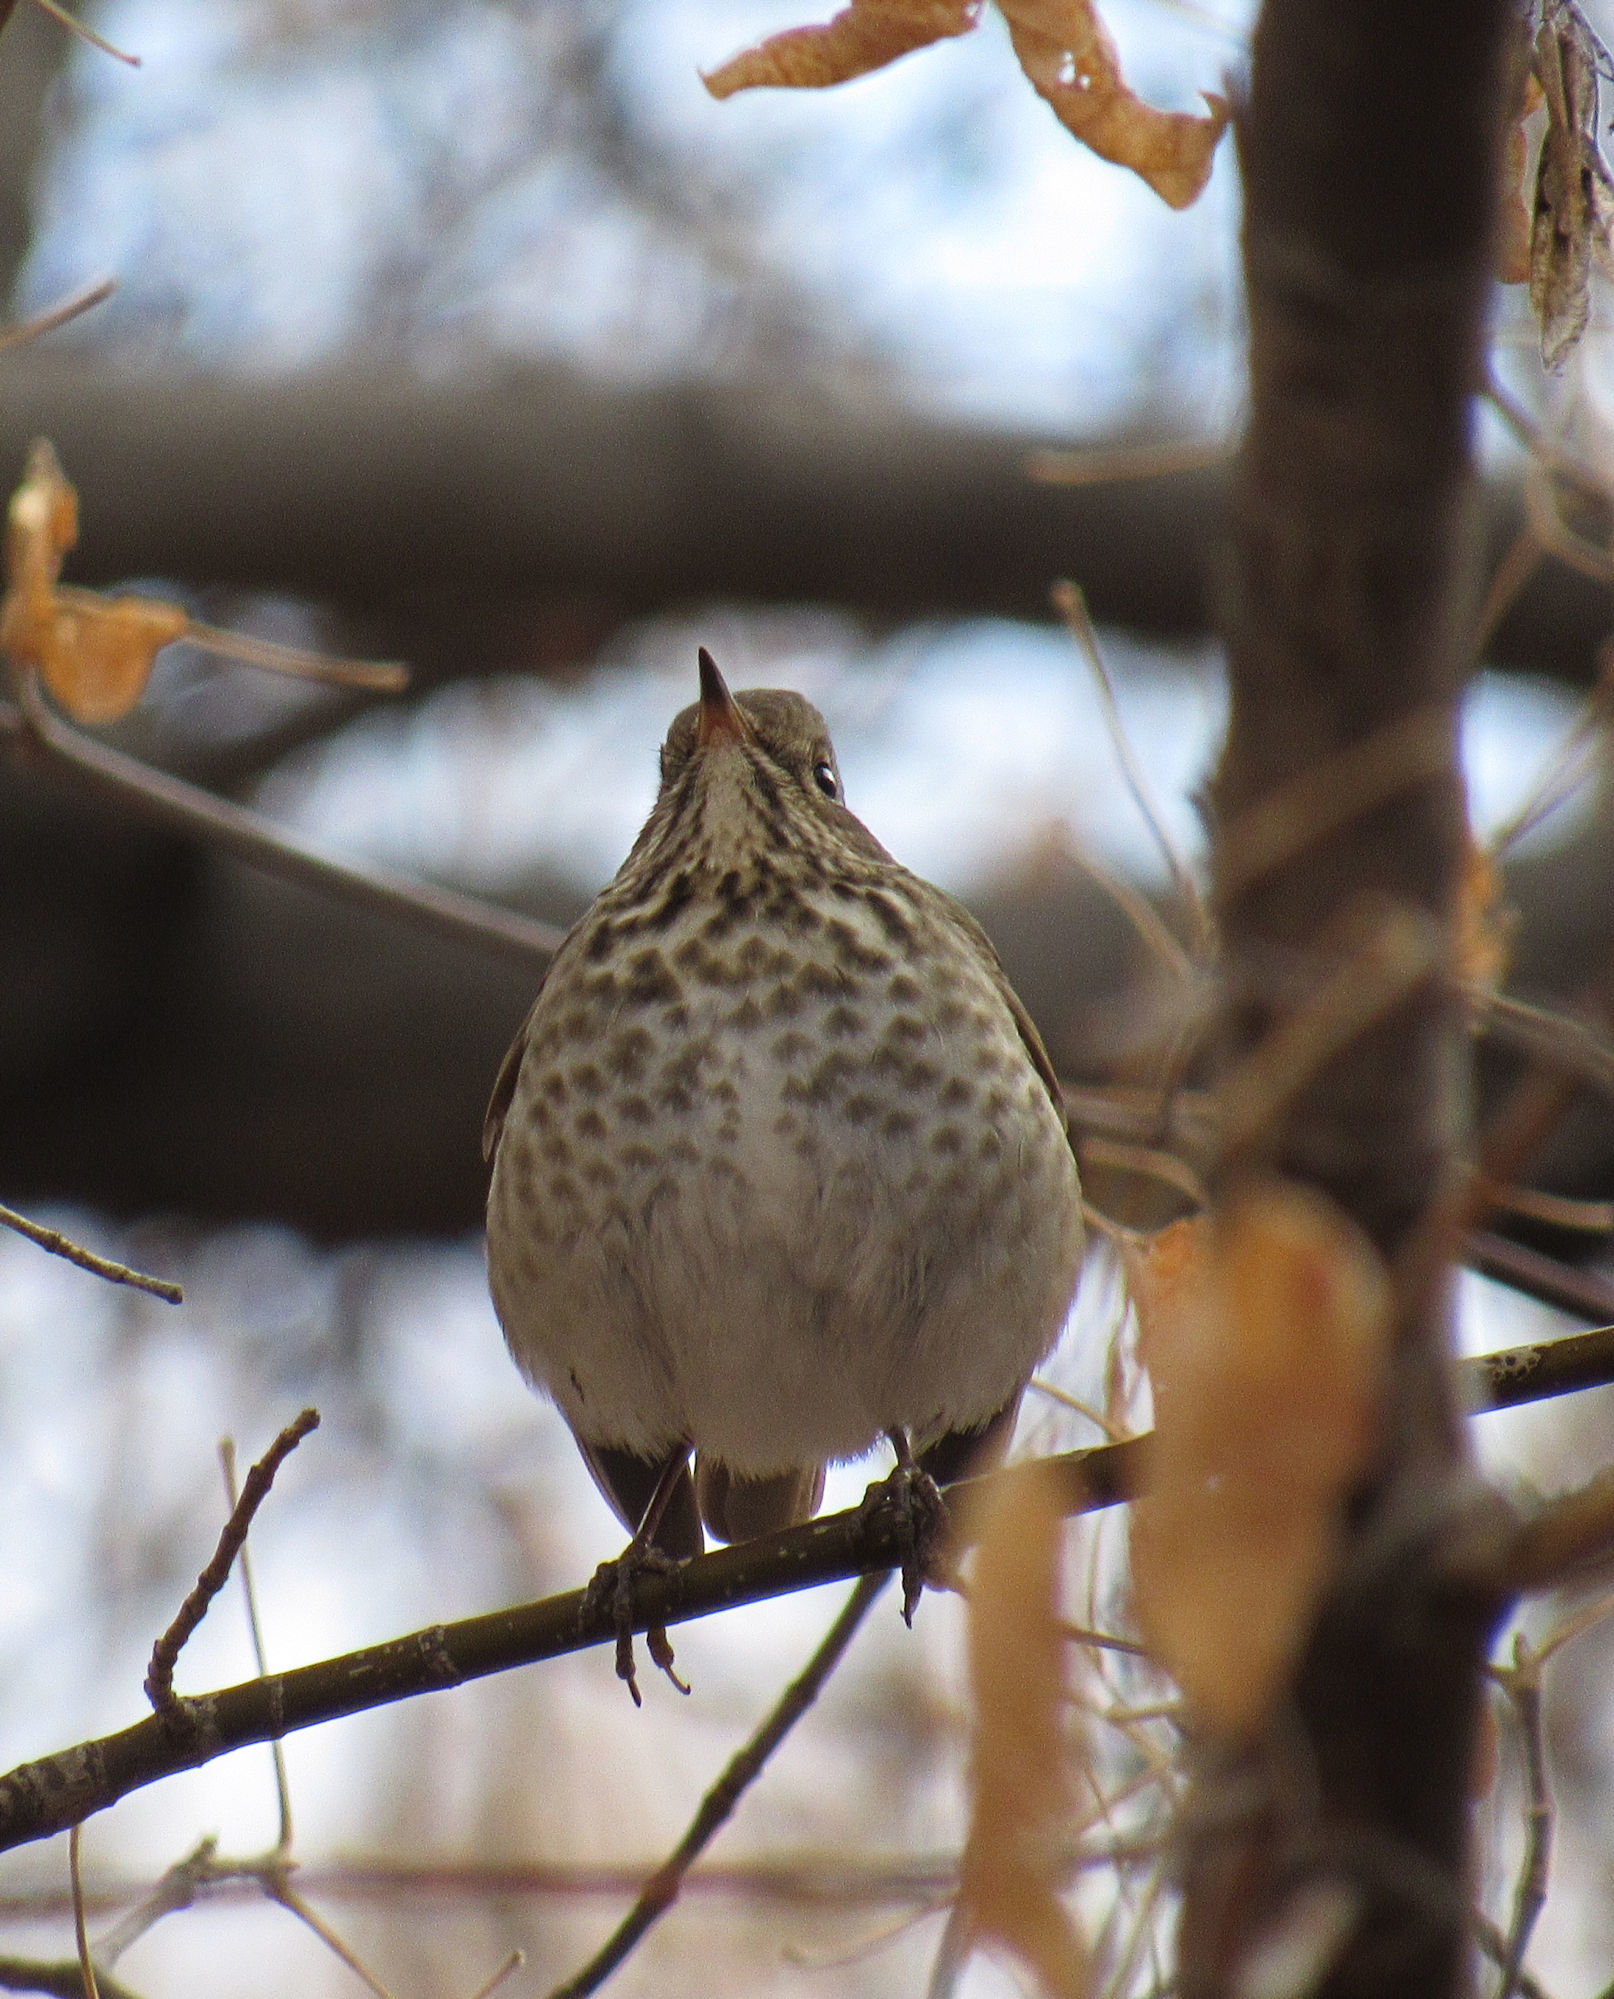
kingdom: Animalia
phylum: Chordata
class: Aves
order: Passeriformes
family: Turdidae
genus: Catharus
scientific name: Catharus guttatus
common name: Hermit thrush
